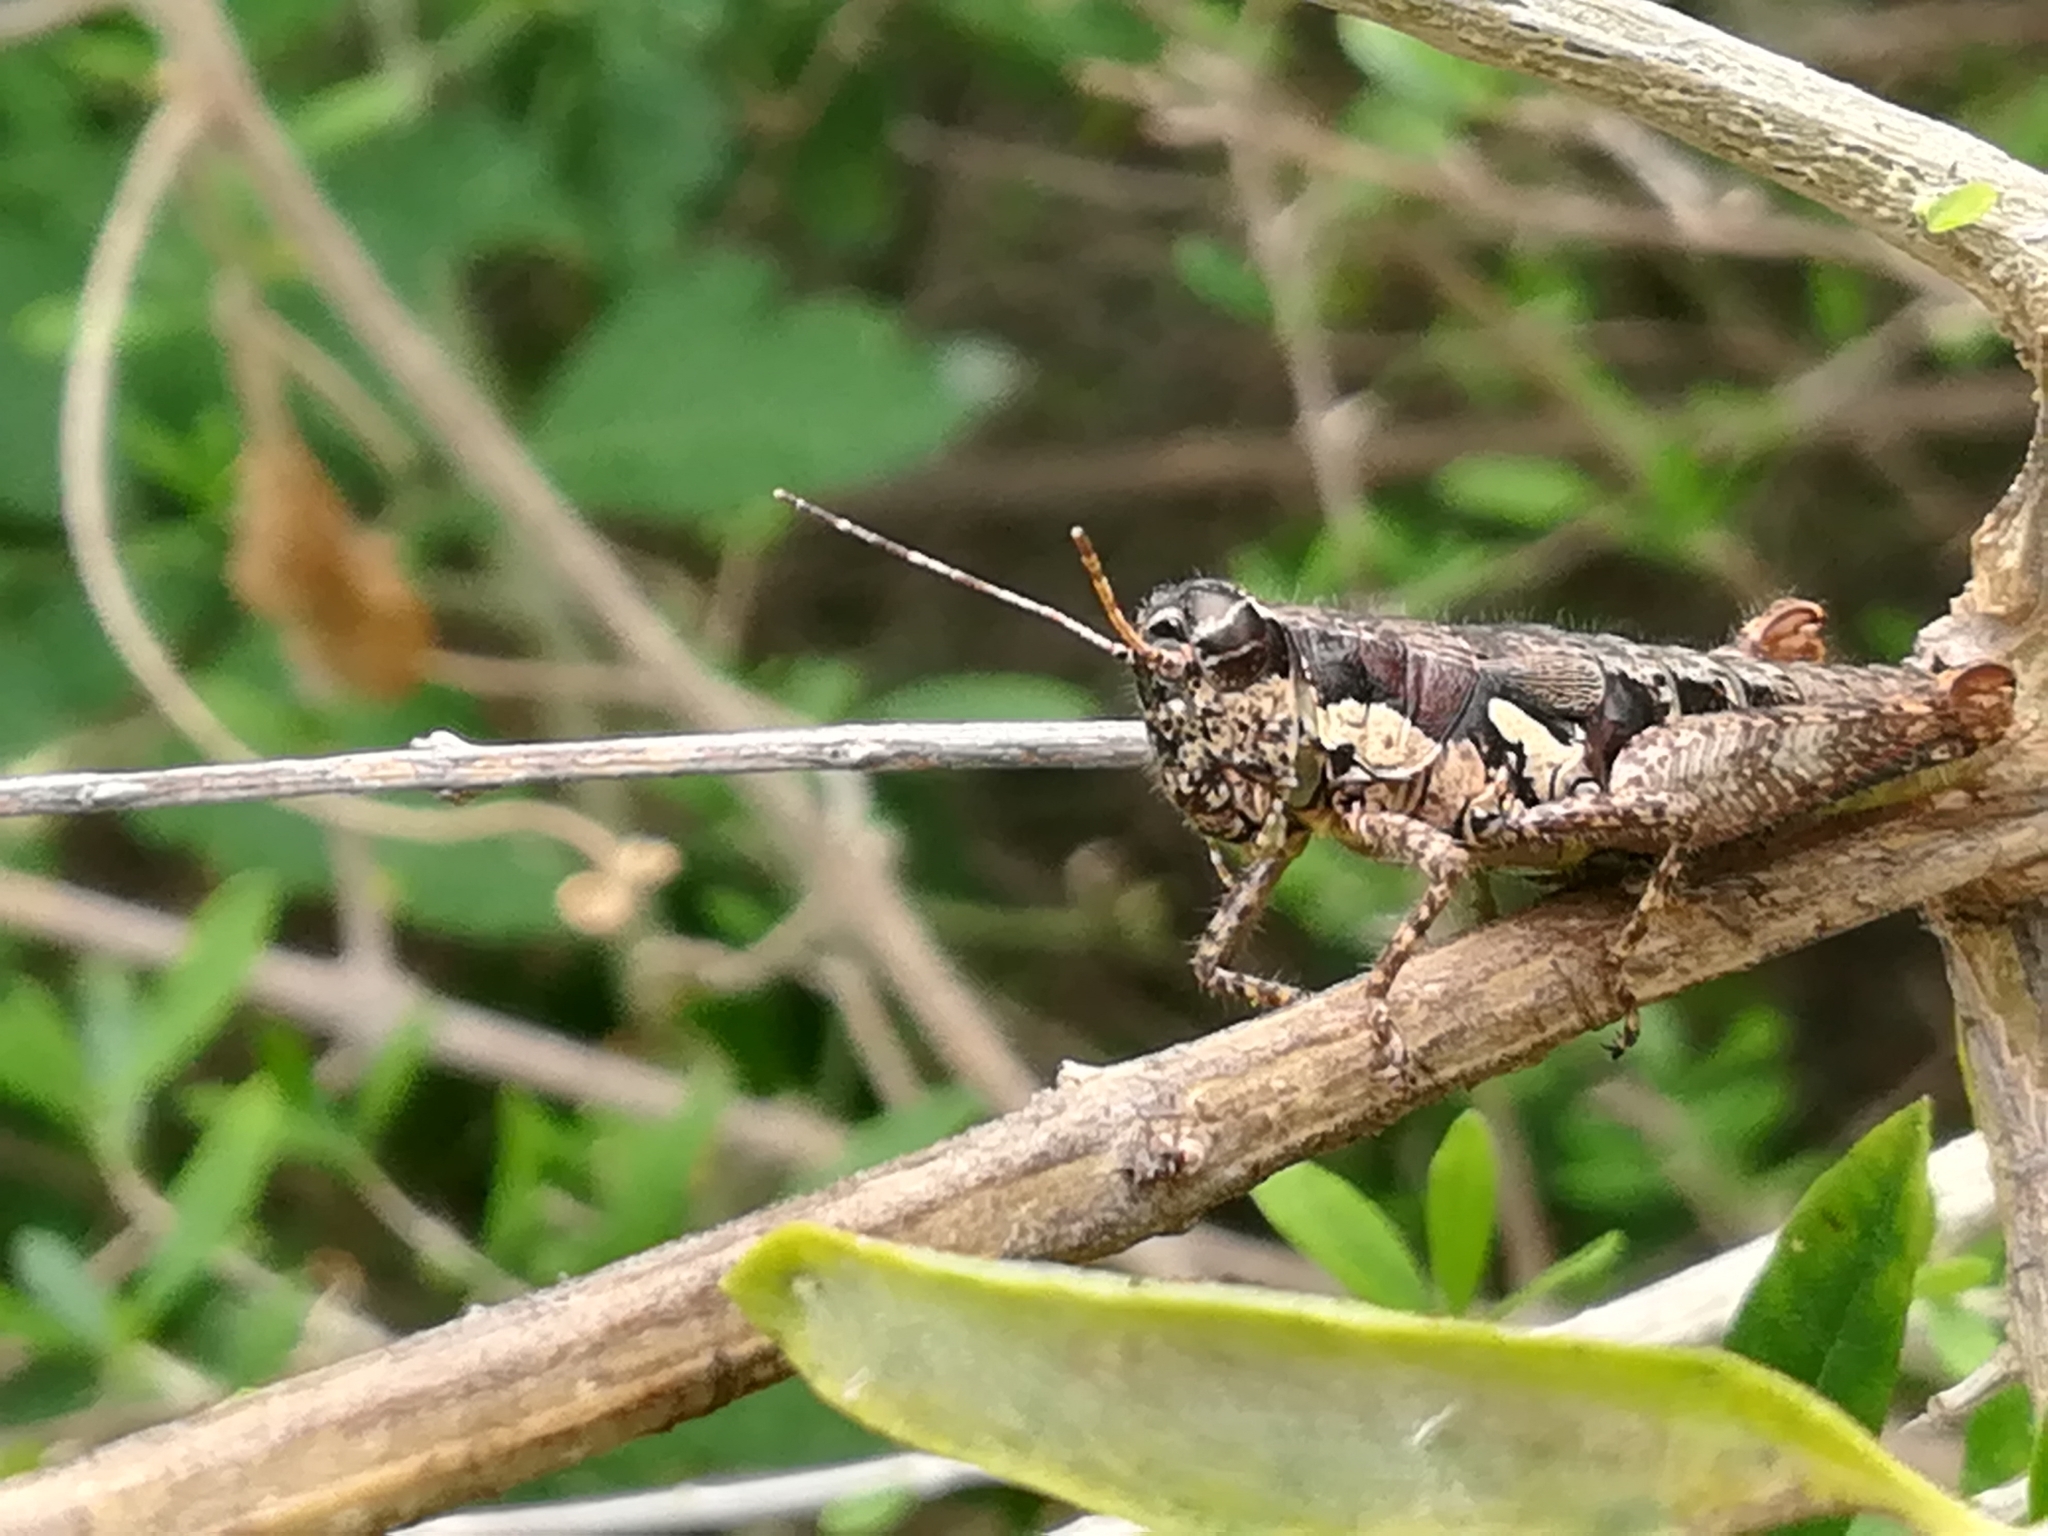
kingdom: Animalia
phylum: Arthropoda
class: Insecta
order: Orthoptera
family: Acrididae
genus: Mexitettix
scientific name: Mexitettix ricuchuri
